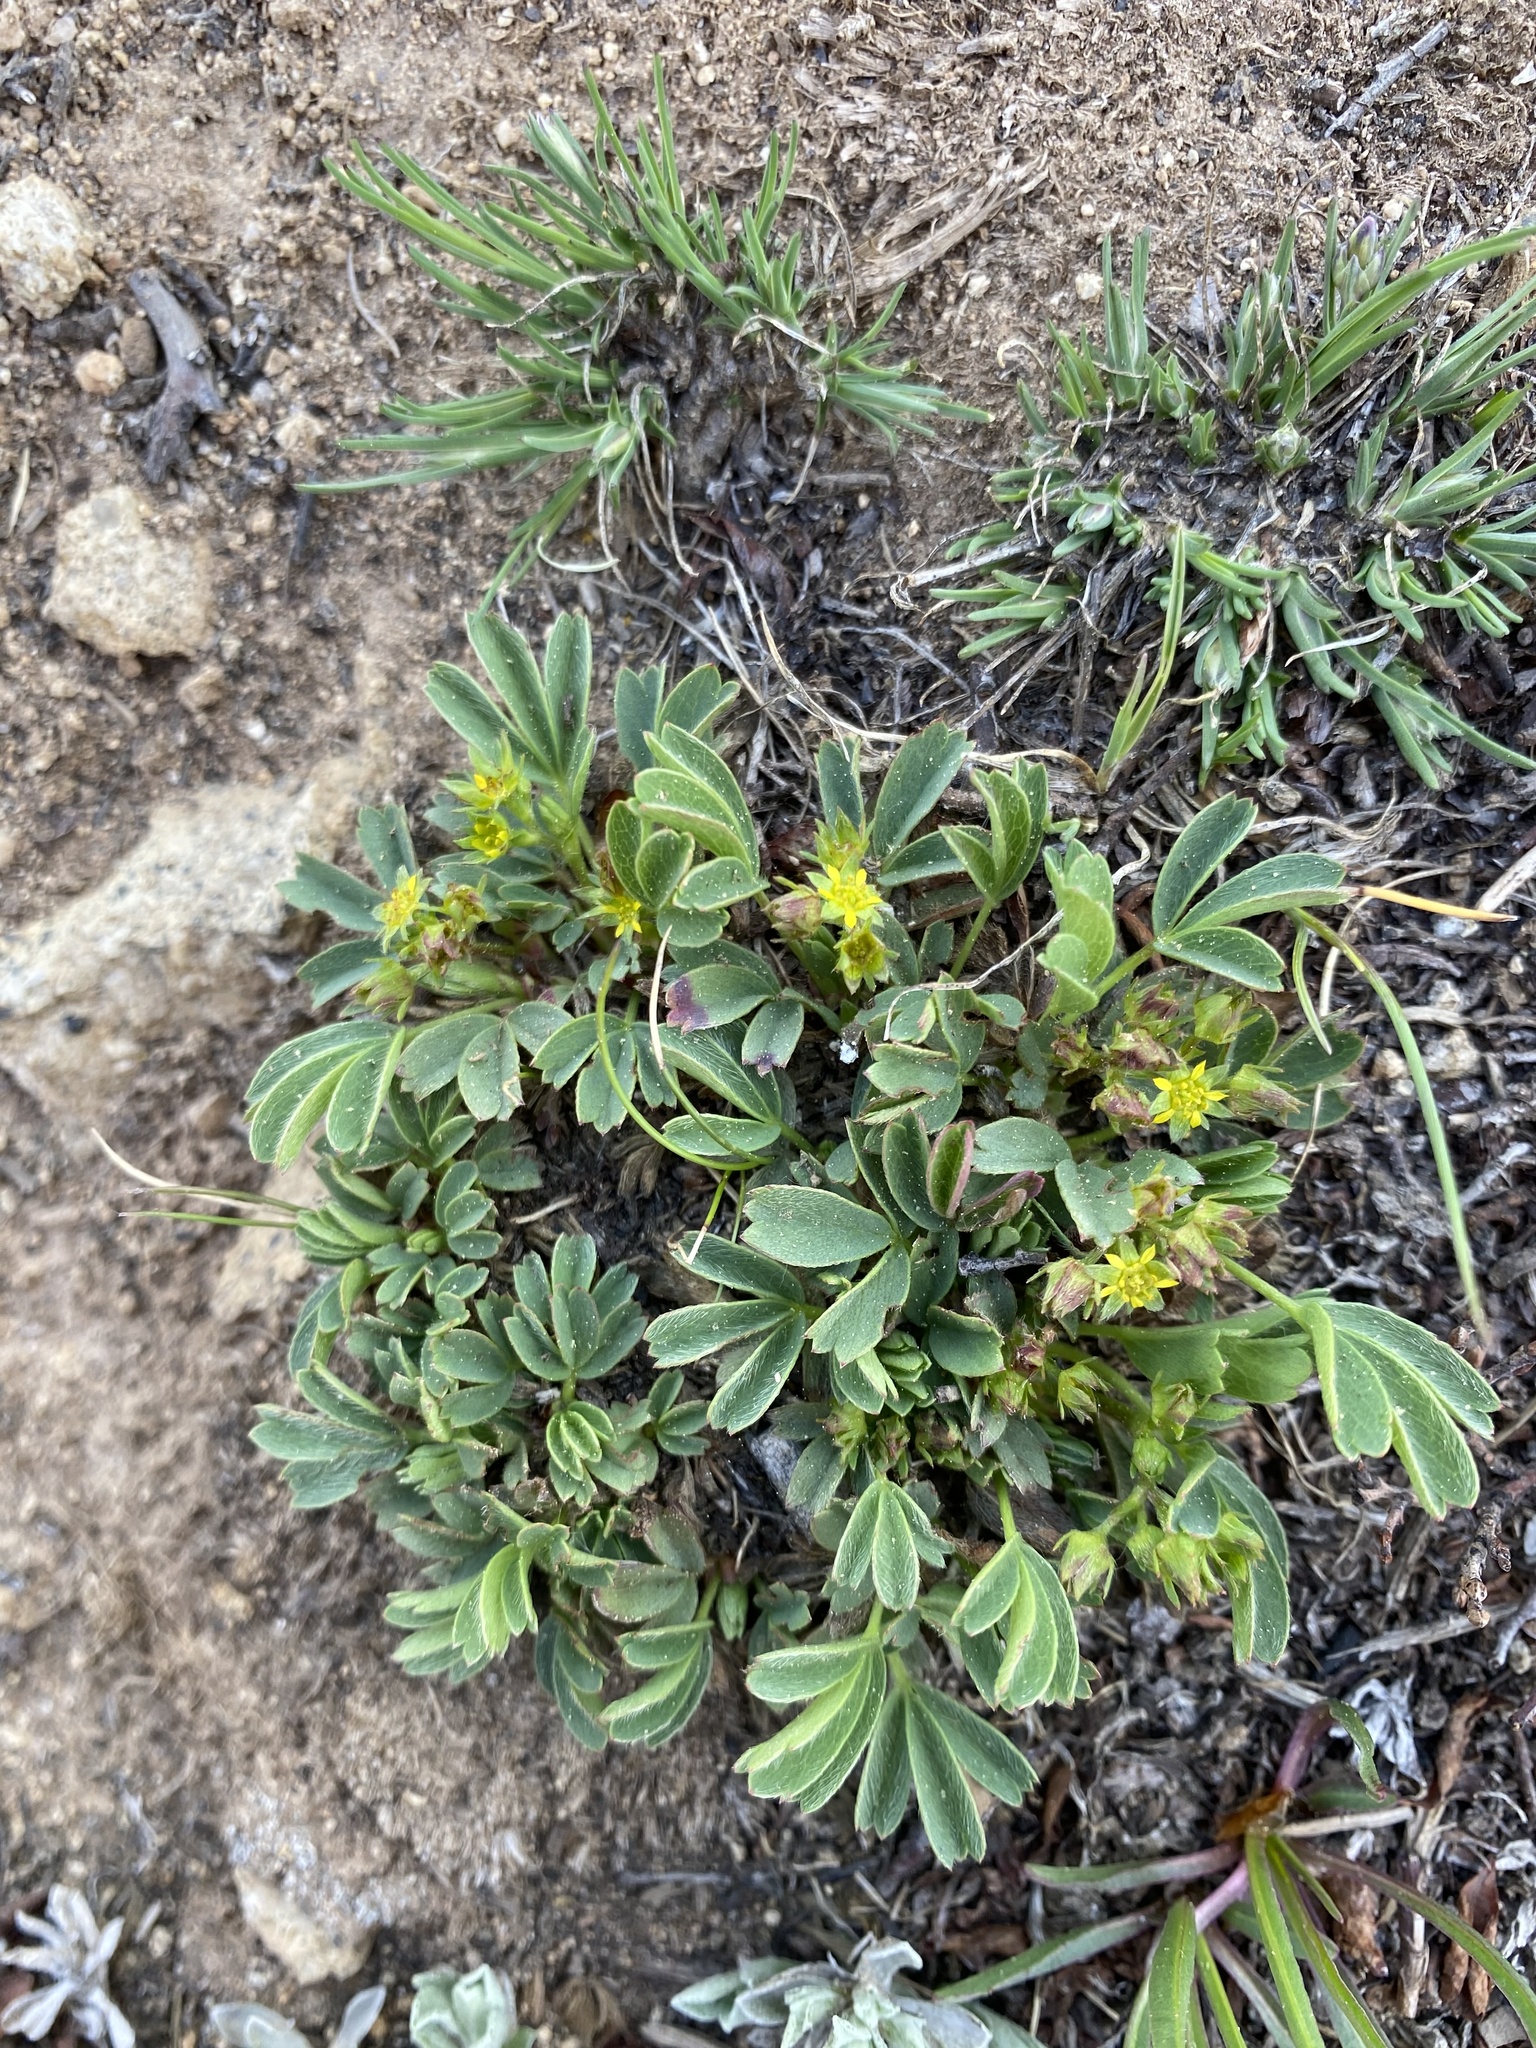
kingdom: Plantae
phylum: Tracheophyta
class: Magnoliopsida
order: Rosales
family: Rosaceae
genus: Sibbaldia
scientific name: Sibbaldia procumbens
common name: Creeping sibbaldia
